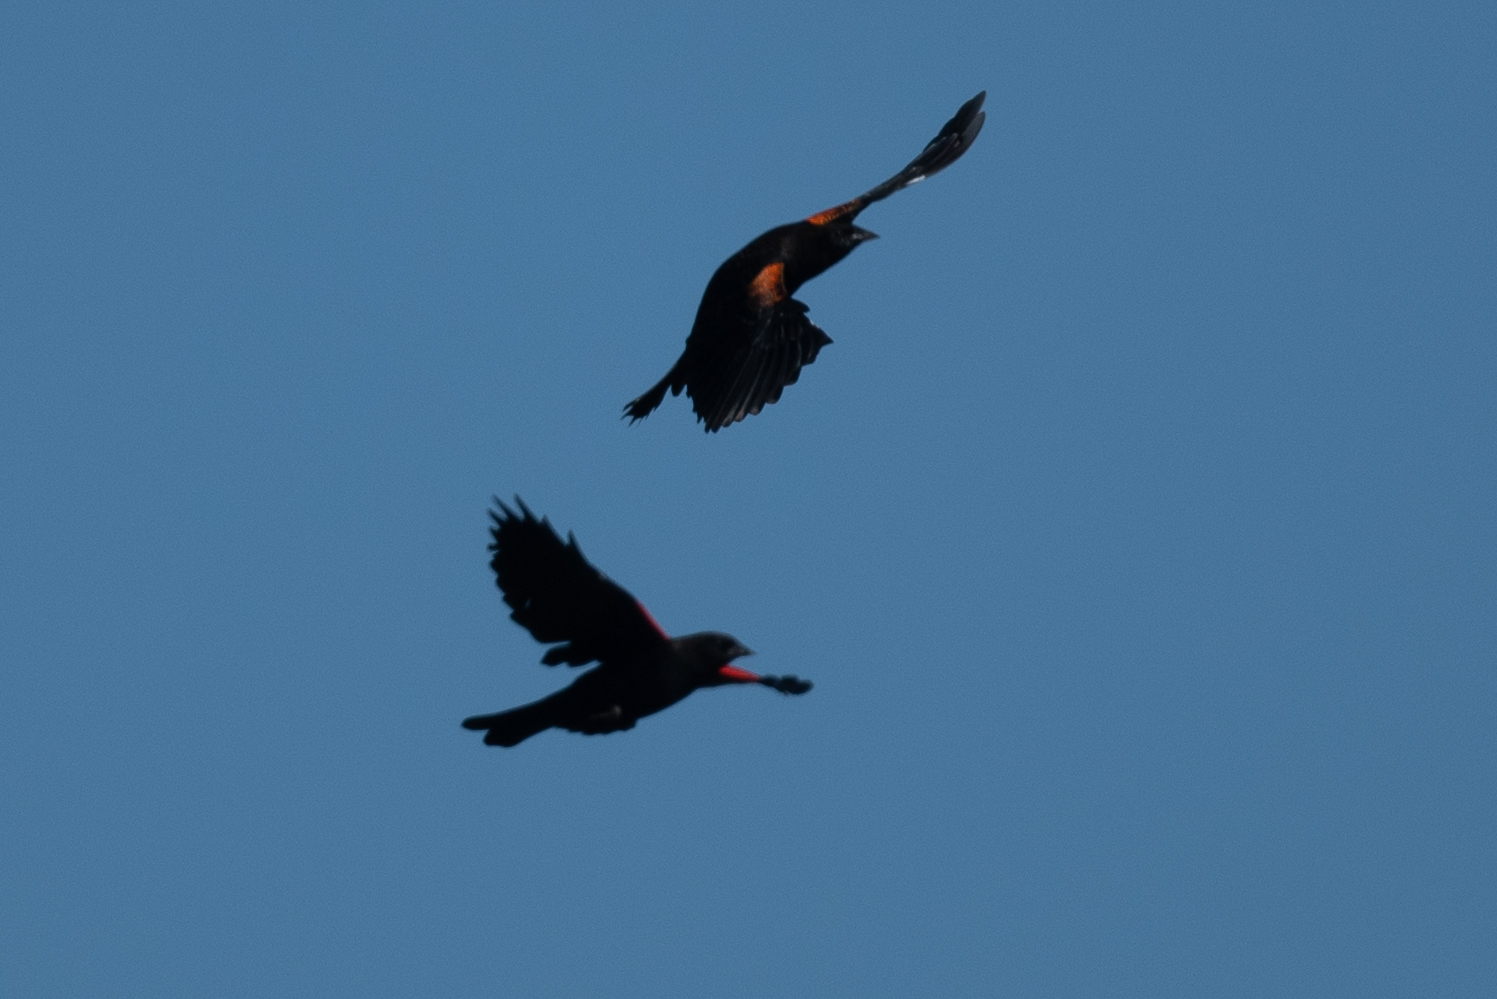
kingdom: Animalia
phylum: Chordata
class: Aves
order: Passeriformes
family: Icteridae
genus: Agelaius
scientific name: Agelaius phoeniceus
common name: Red-winged blackbird
